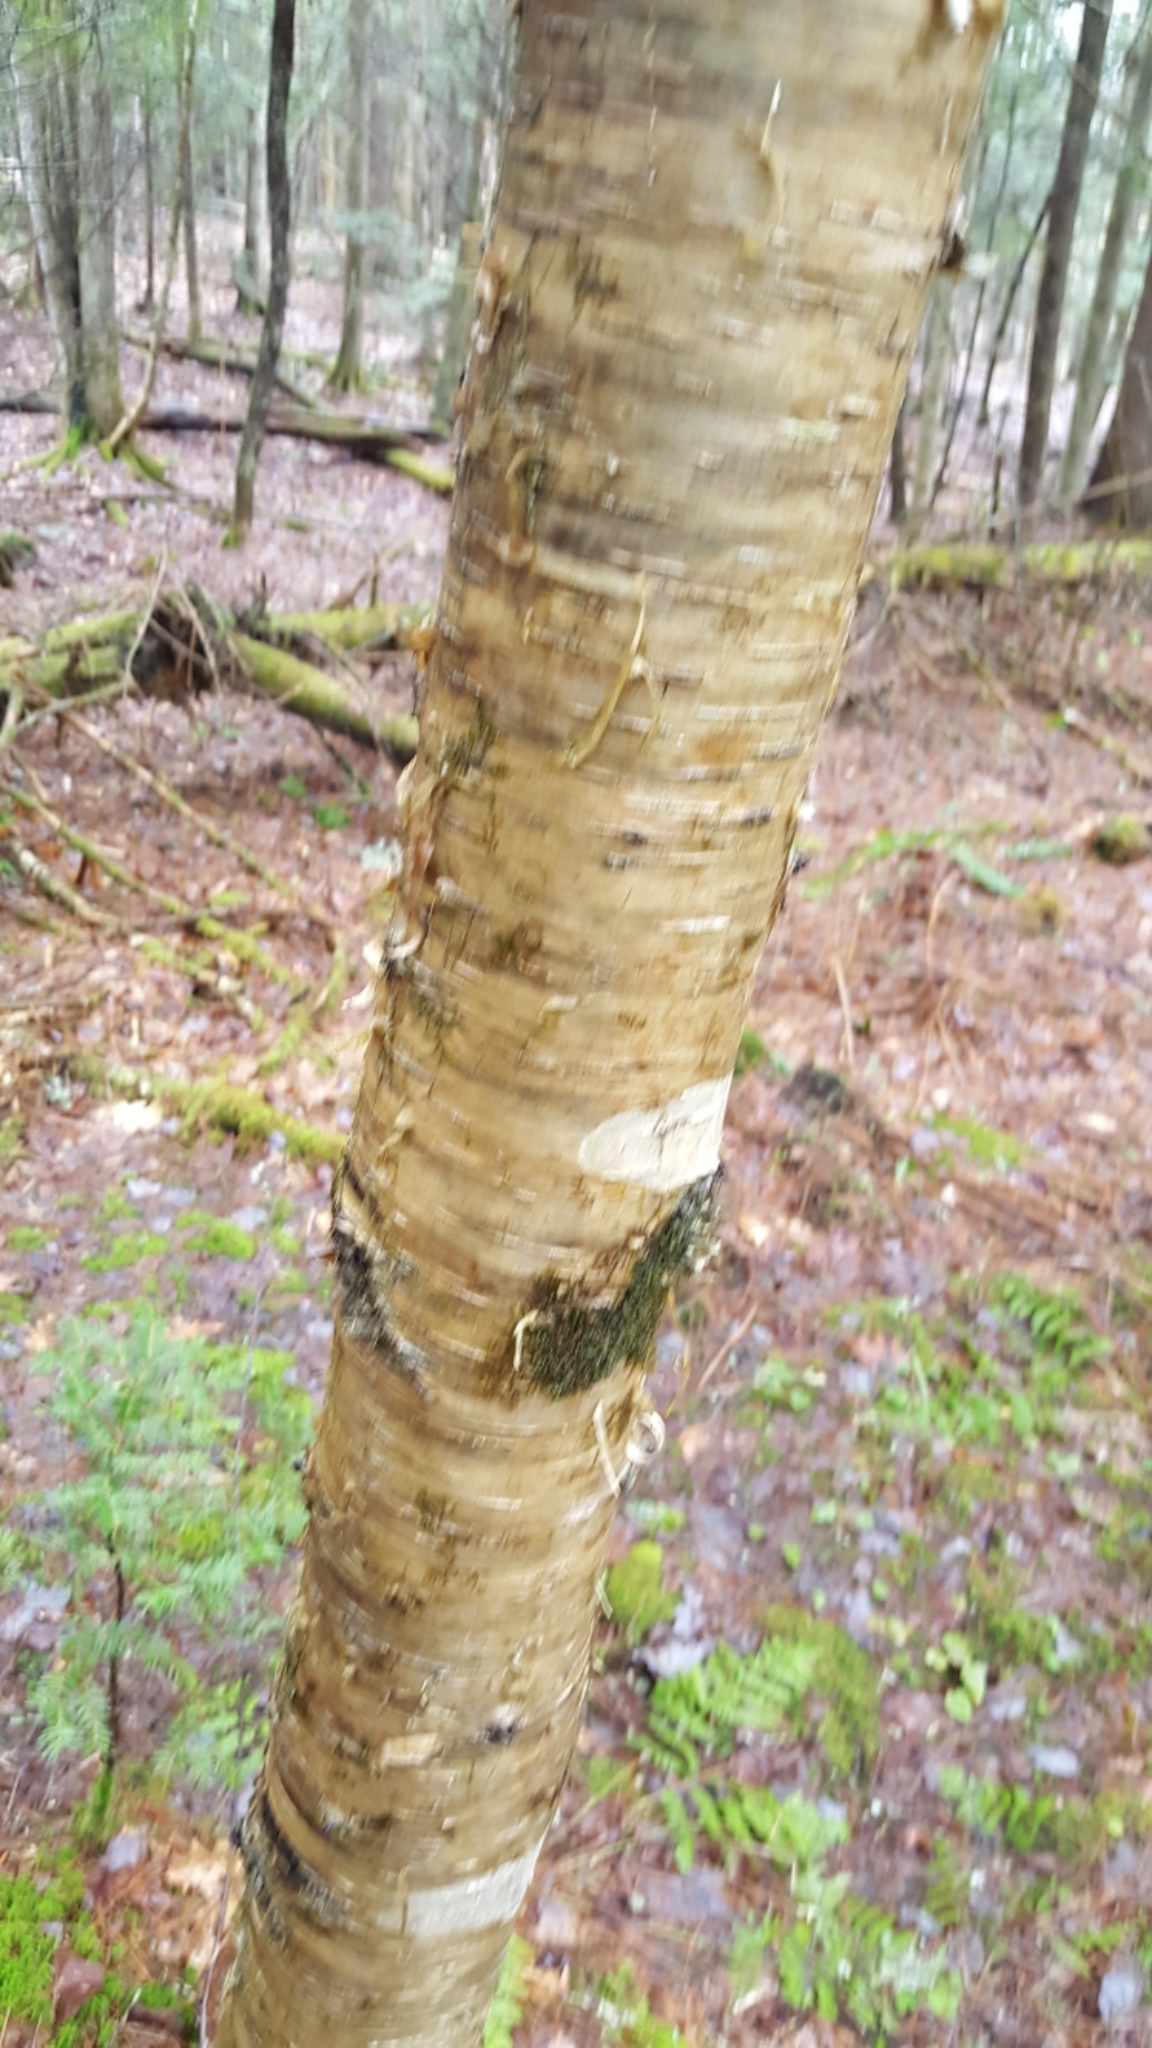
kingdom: Plantae
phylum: Tracheophyta
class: Magnoliopsida
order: Fagales
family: Betulaceae
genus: Betula
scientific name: Betula alleghaniensis
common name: Yellow birch
